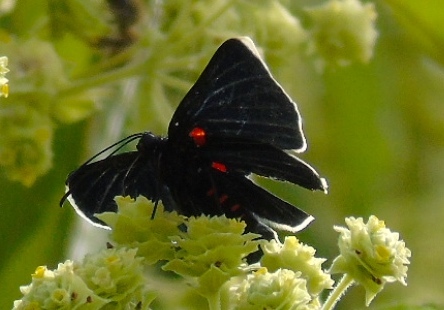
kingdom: Animalia
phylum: Arthropoda
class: Insecta
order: Lepidoptera
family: Lycaenidae
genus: Melanis
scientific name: Melanis
